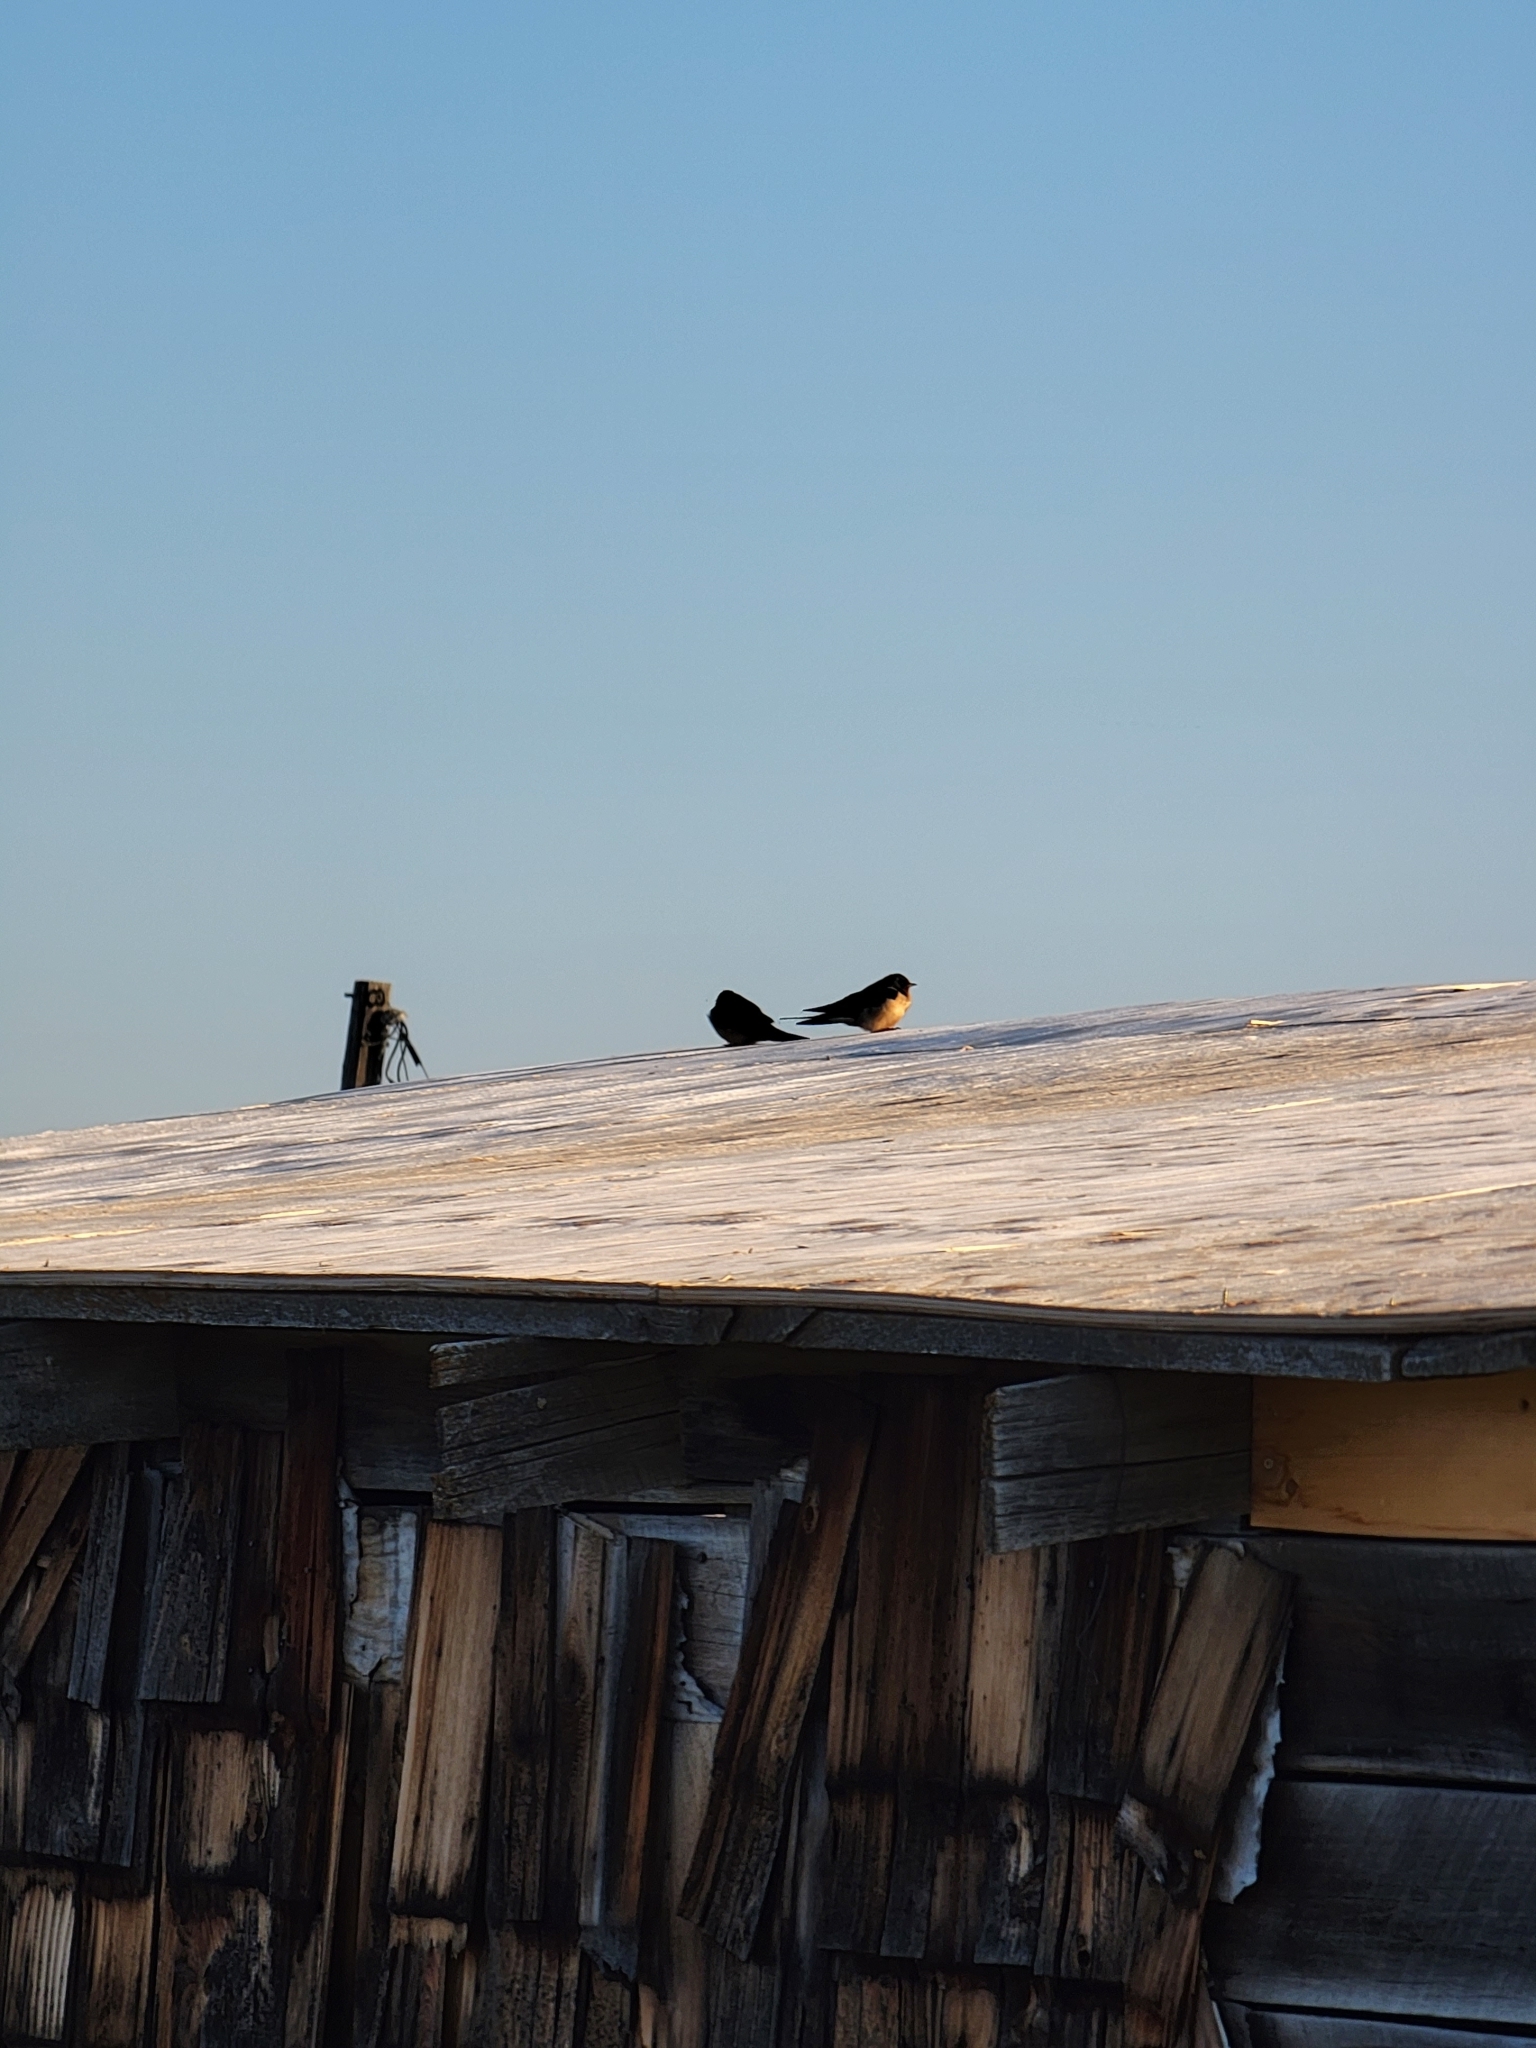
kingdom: Animalia
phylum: Chordata
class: Aves
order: Passeriformes
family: Hirundinidae
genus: Hirundo
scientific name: Hirundo rustica
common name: Barn swallow
